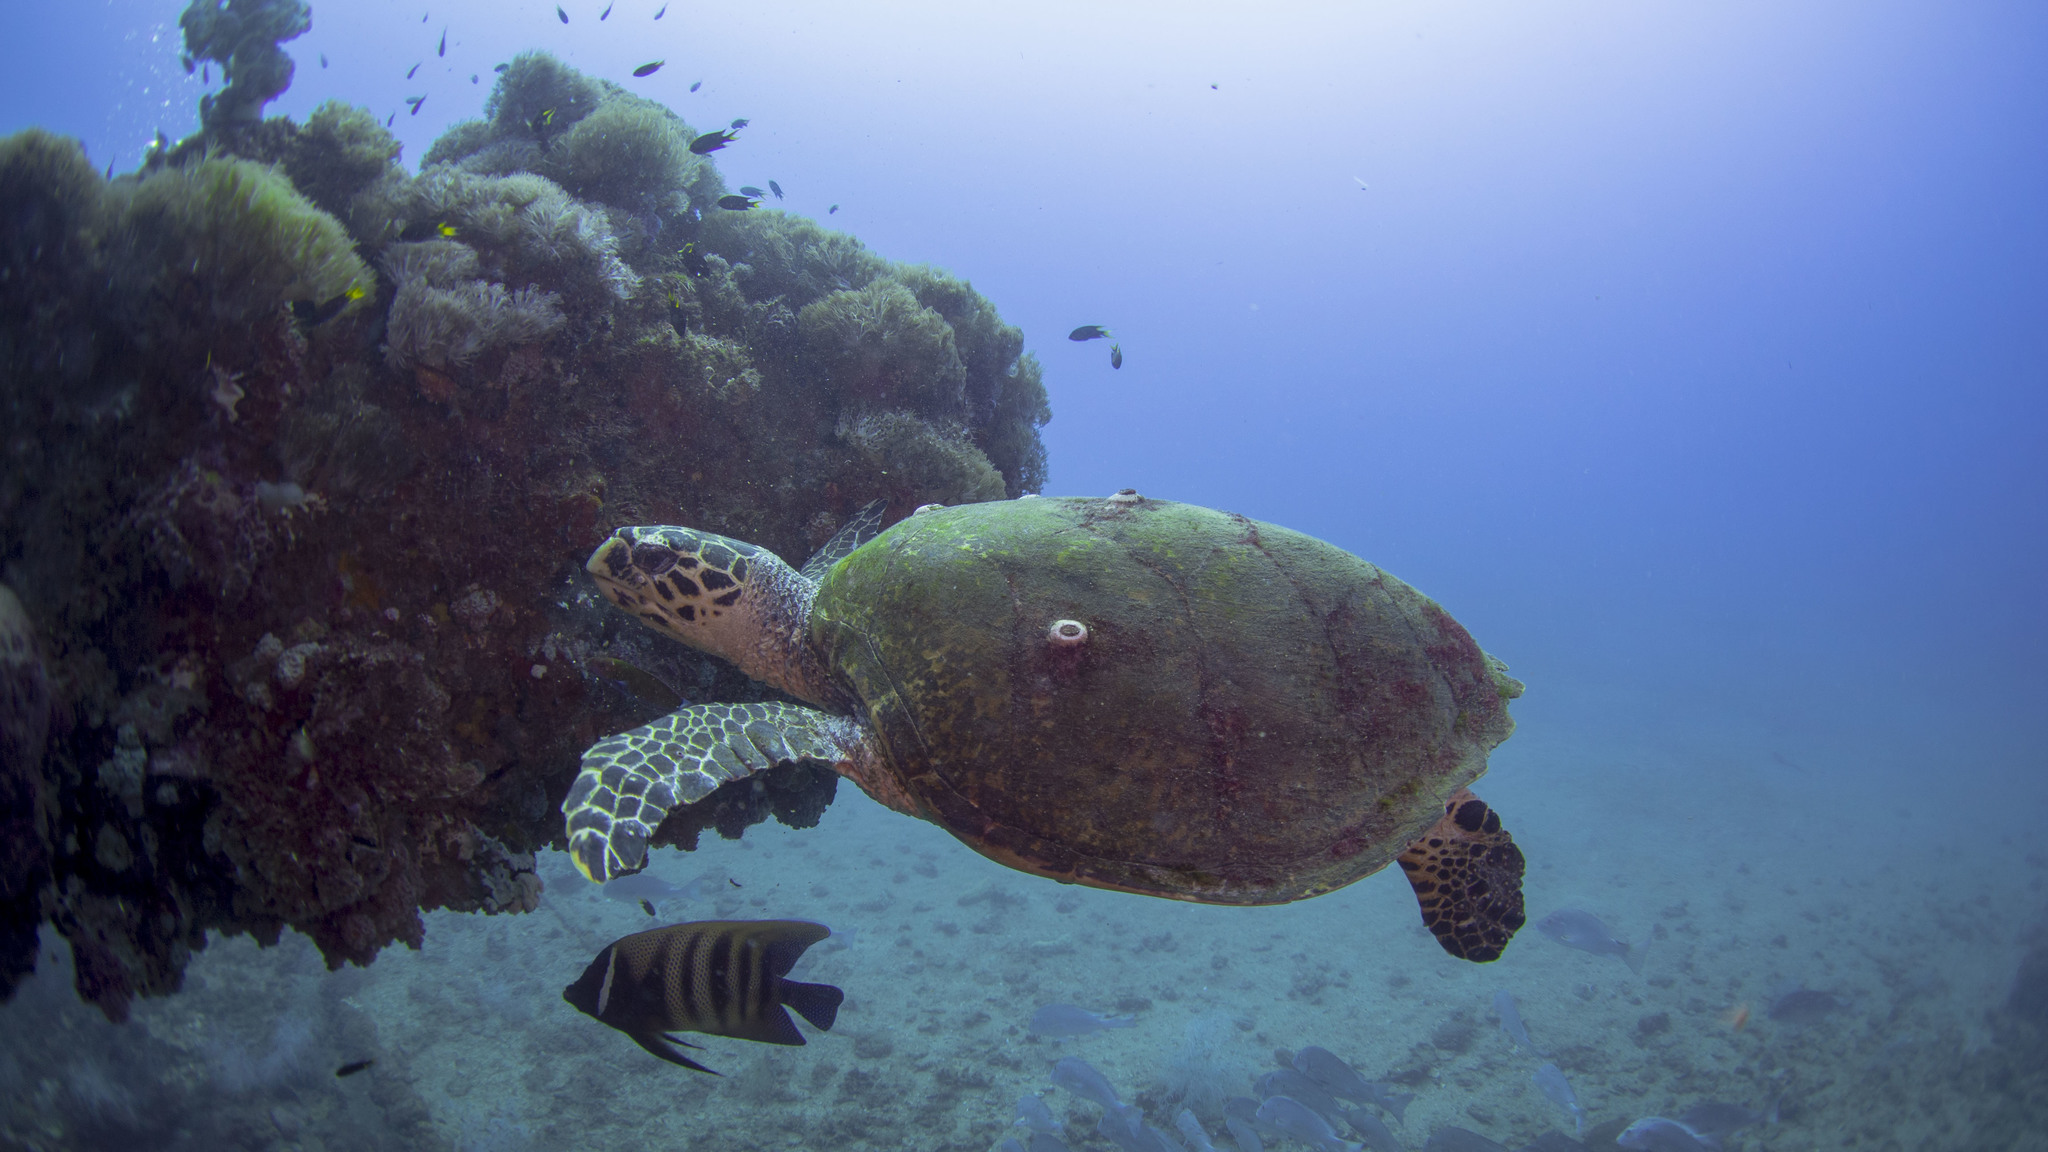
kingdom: Animalia
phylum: Chordata
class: Testudines
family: Cheloniidae
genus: Eretmochelys
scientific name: Eretmochelys imbricata
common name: Hawksbill turtle
